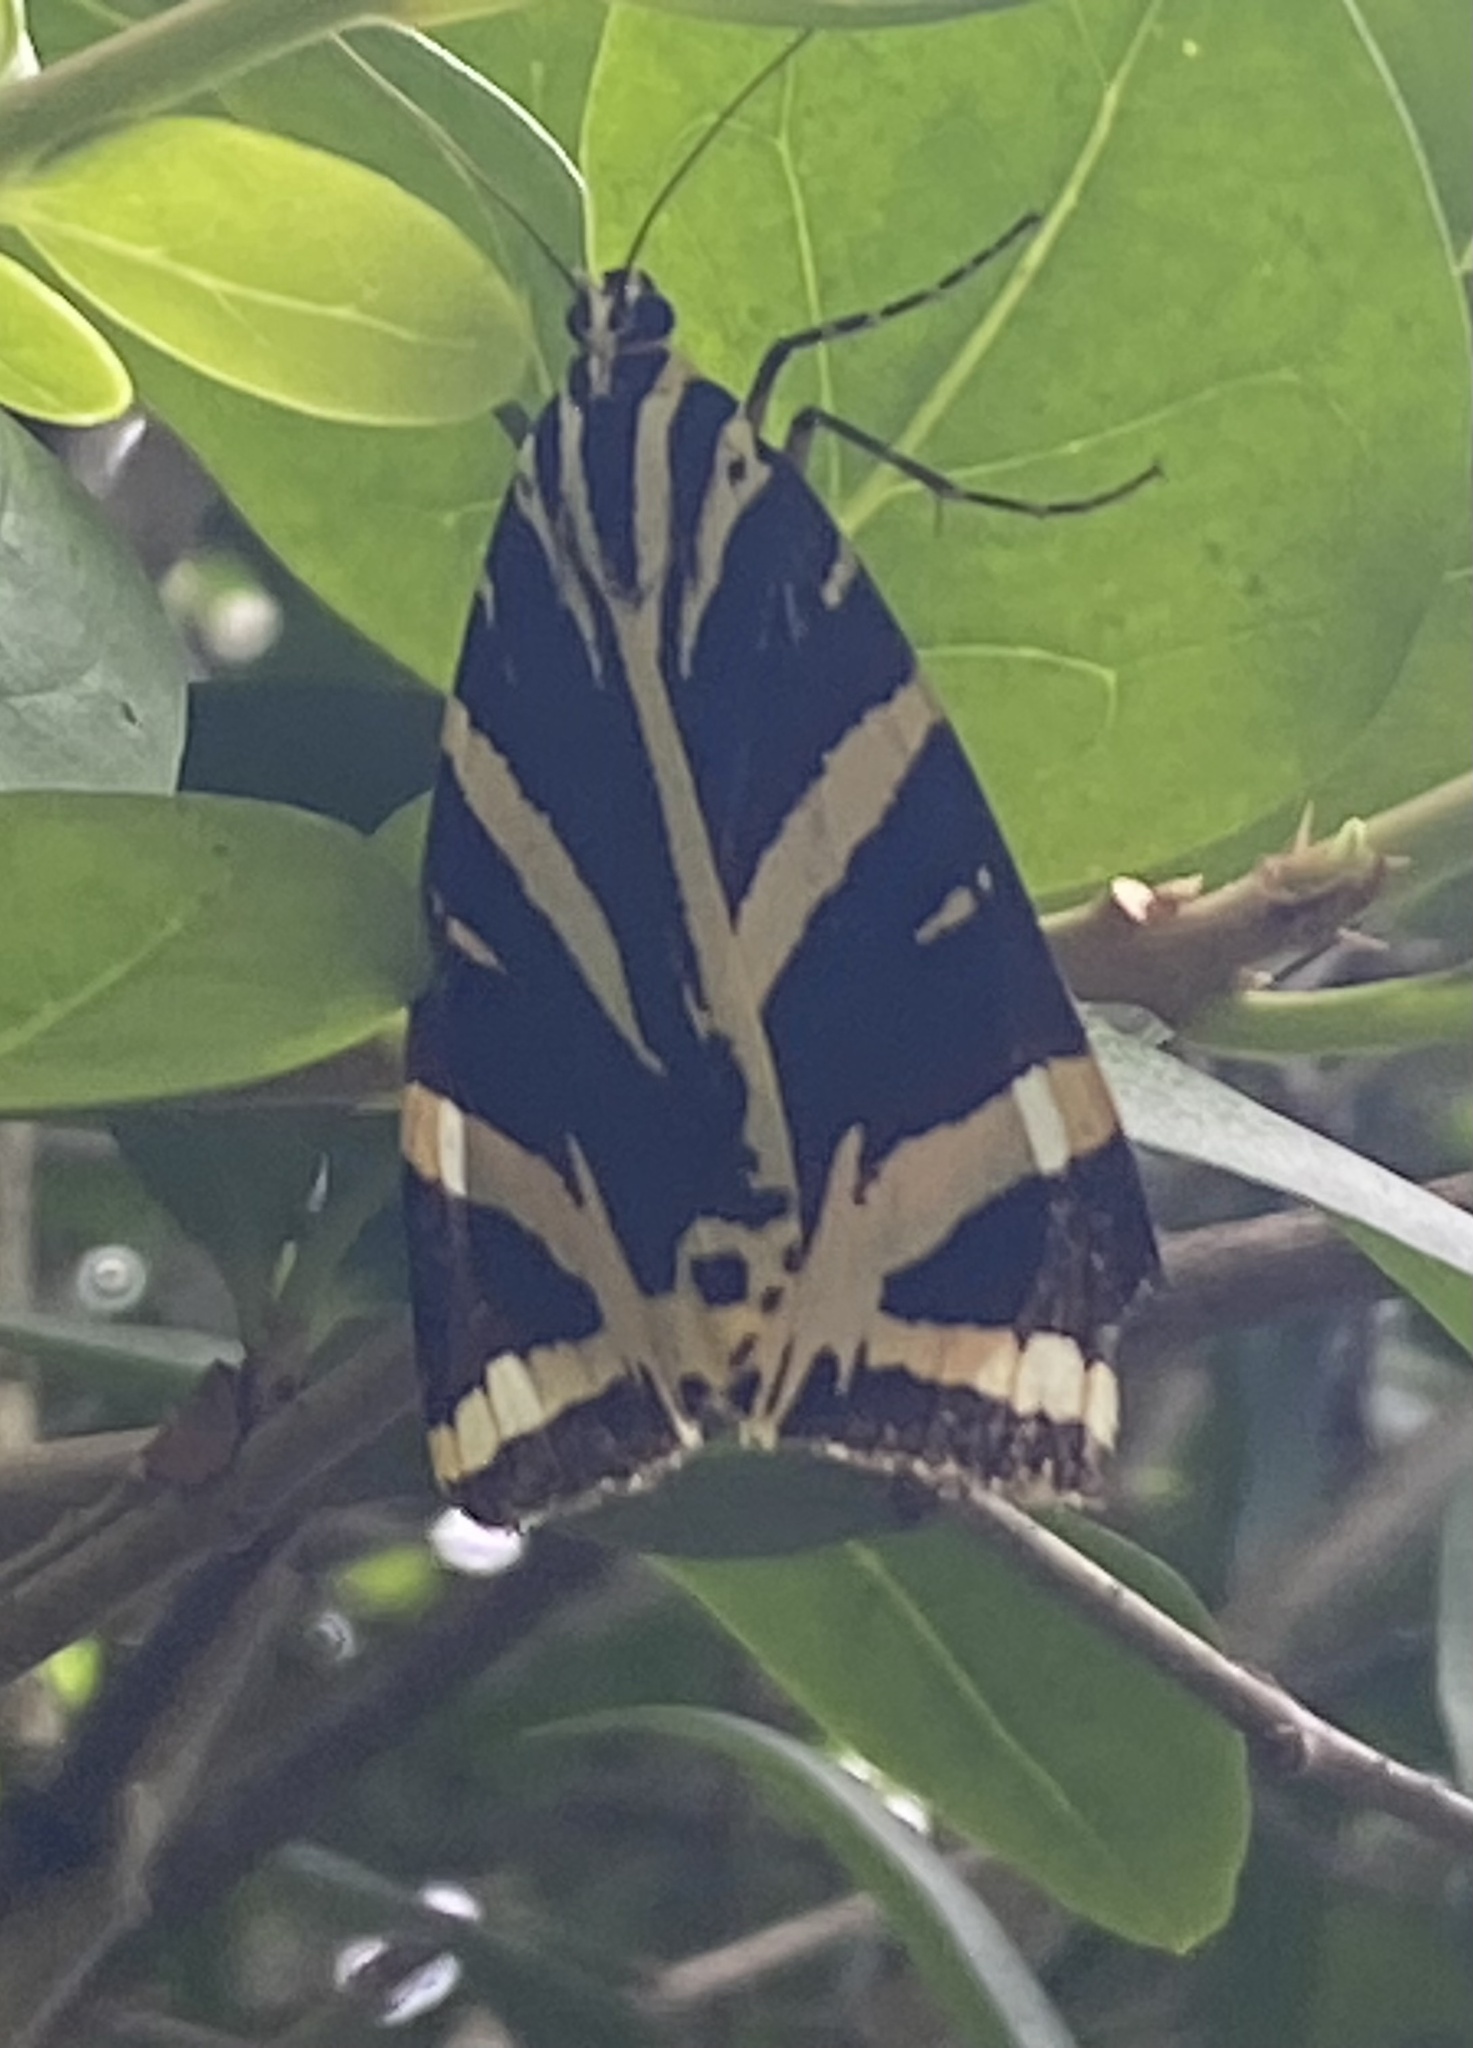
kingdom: Animalia
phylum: Arthropoda
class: Insecta
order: Lepidoptera
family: Erebidae
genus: Euplagia
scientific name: Euplagia quadripunctaria
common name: Jersey tiger
